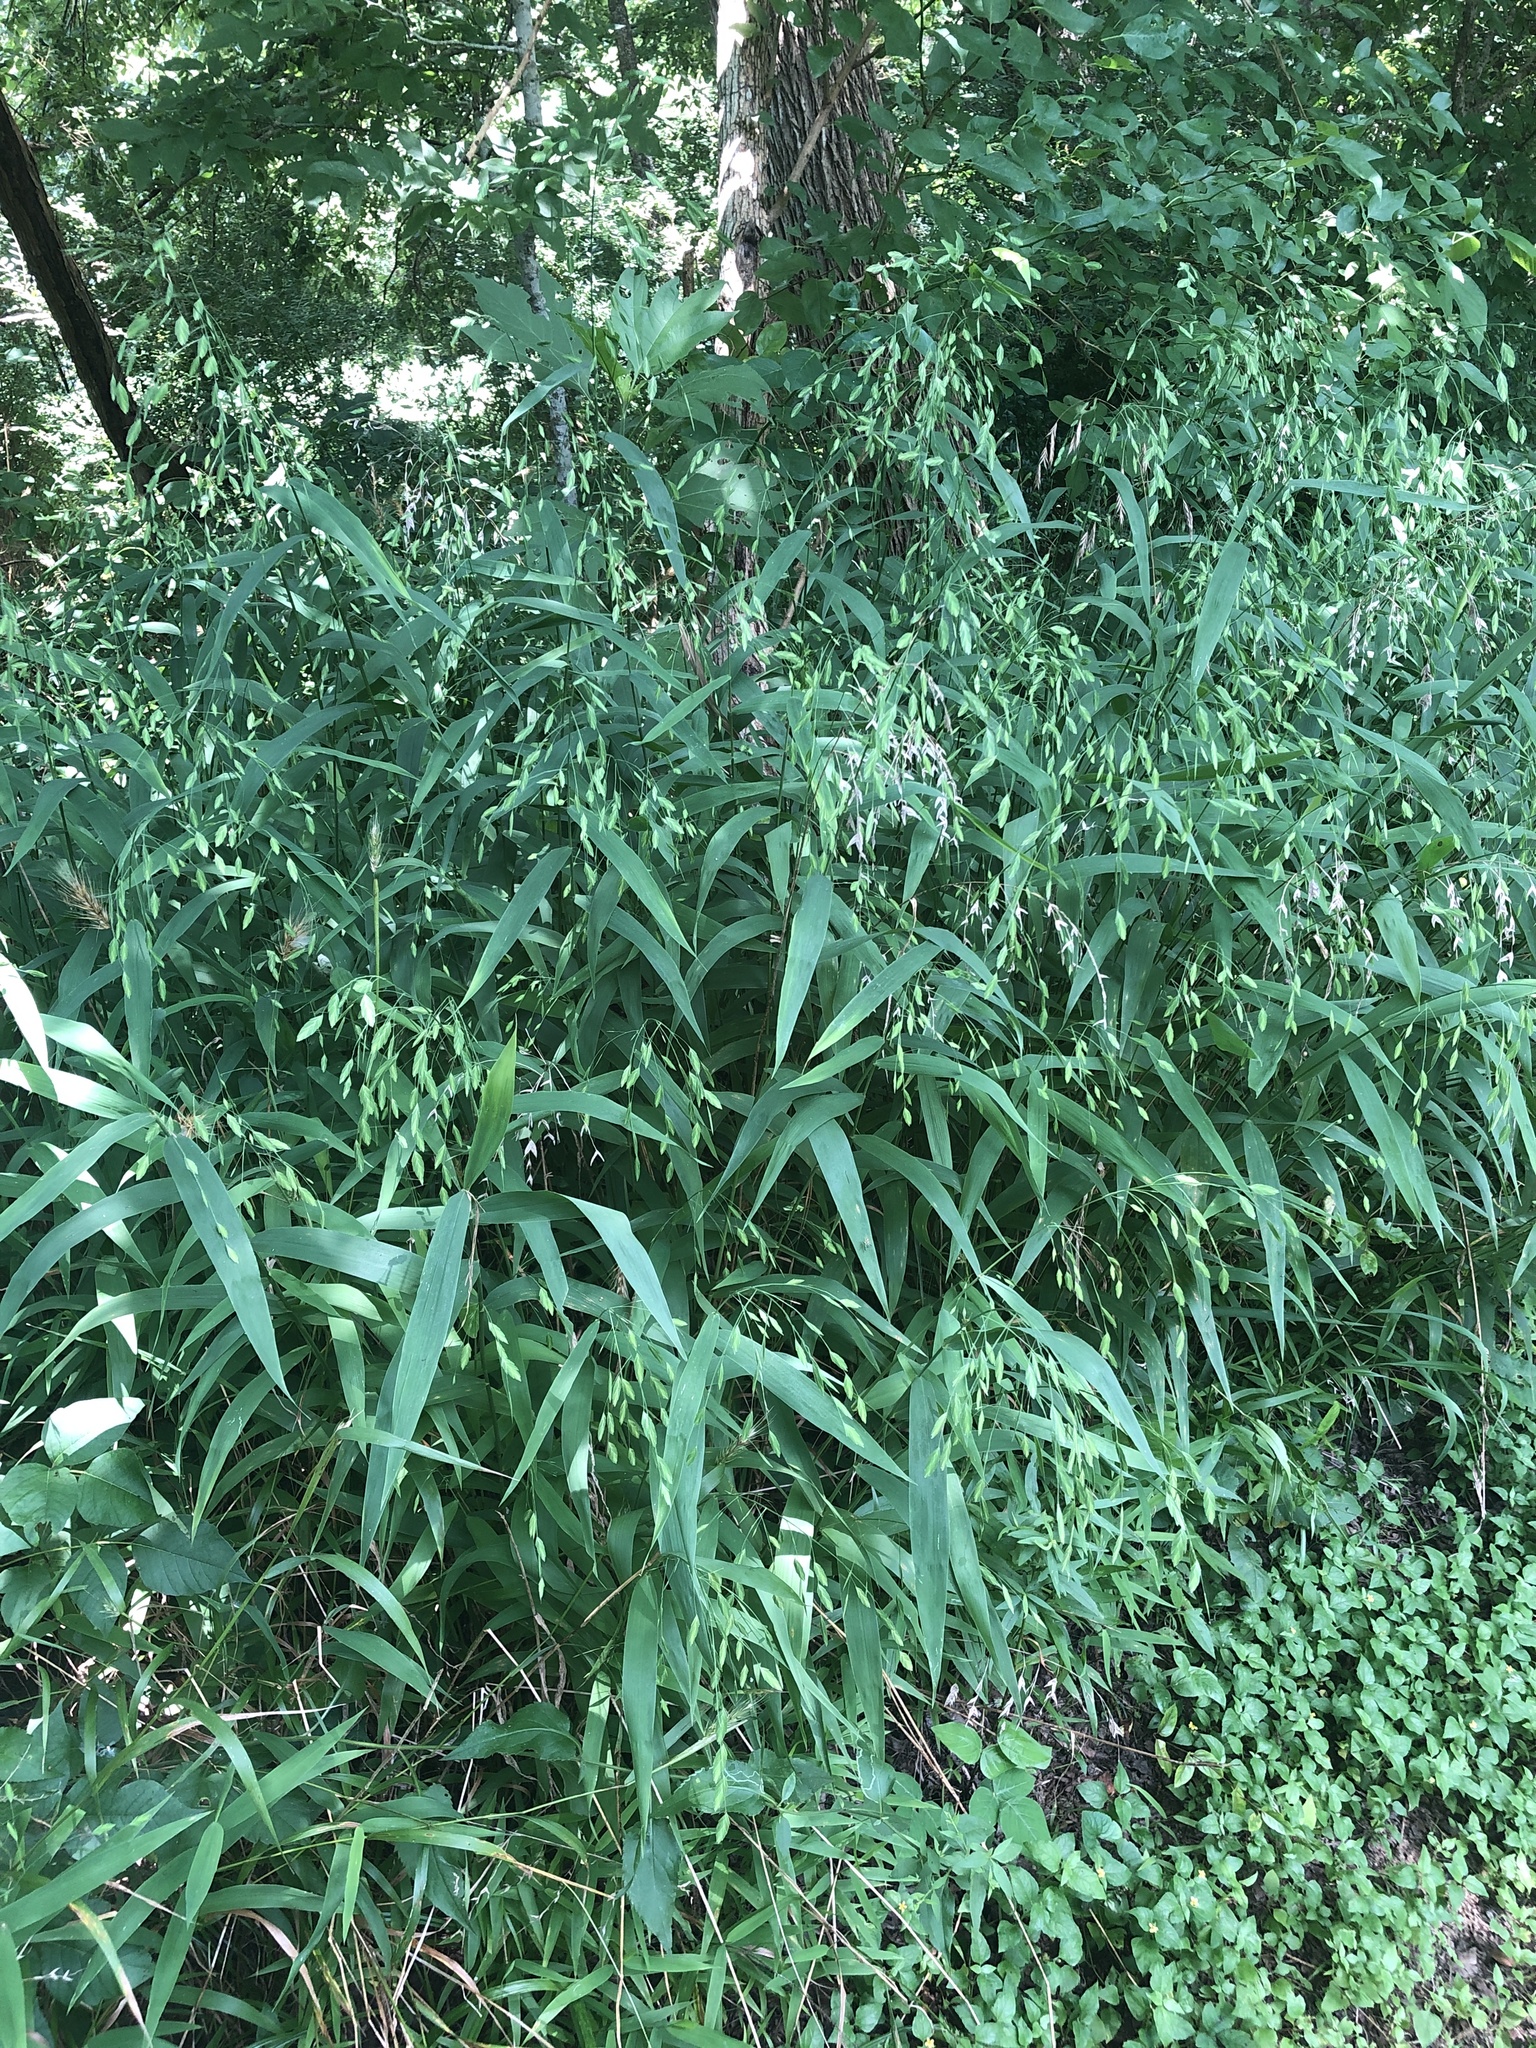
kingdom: Plantae
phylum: Tracheophyta
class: Liliopsida
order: Poales
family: Poaceae
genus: Chasmanthium
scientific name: Chasmanthium latifolium
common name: Broad-leaved chasmanthium
